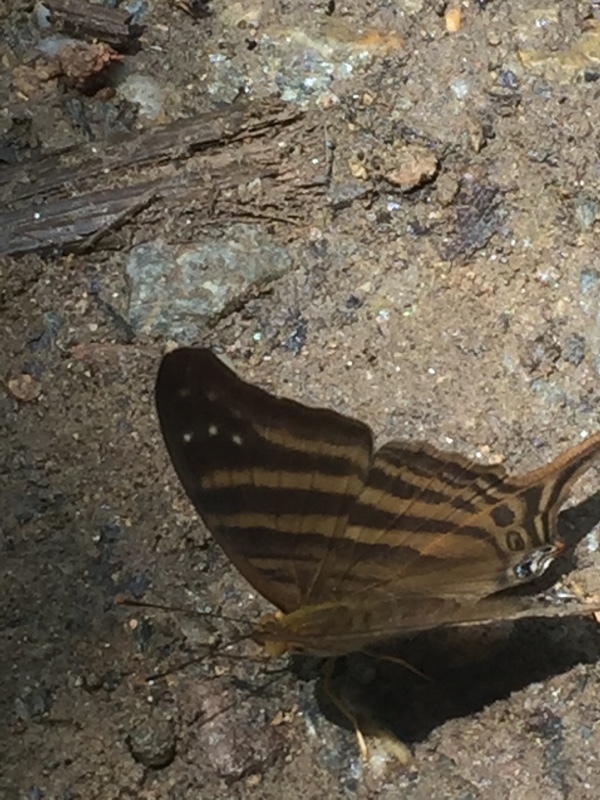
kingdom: Animalia
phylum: Arthropoda
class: Insecta
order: Lepidoptera
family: Nymphalidae
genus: Marpesia
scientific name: Marpesia chiron
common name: Many-banded daggerwing
